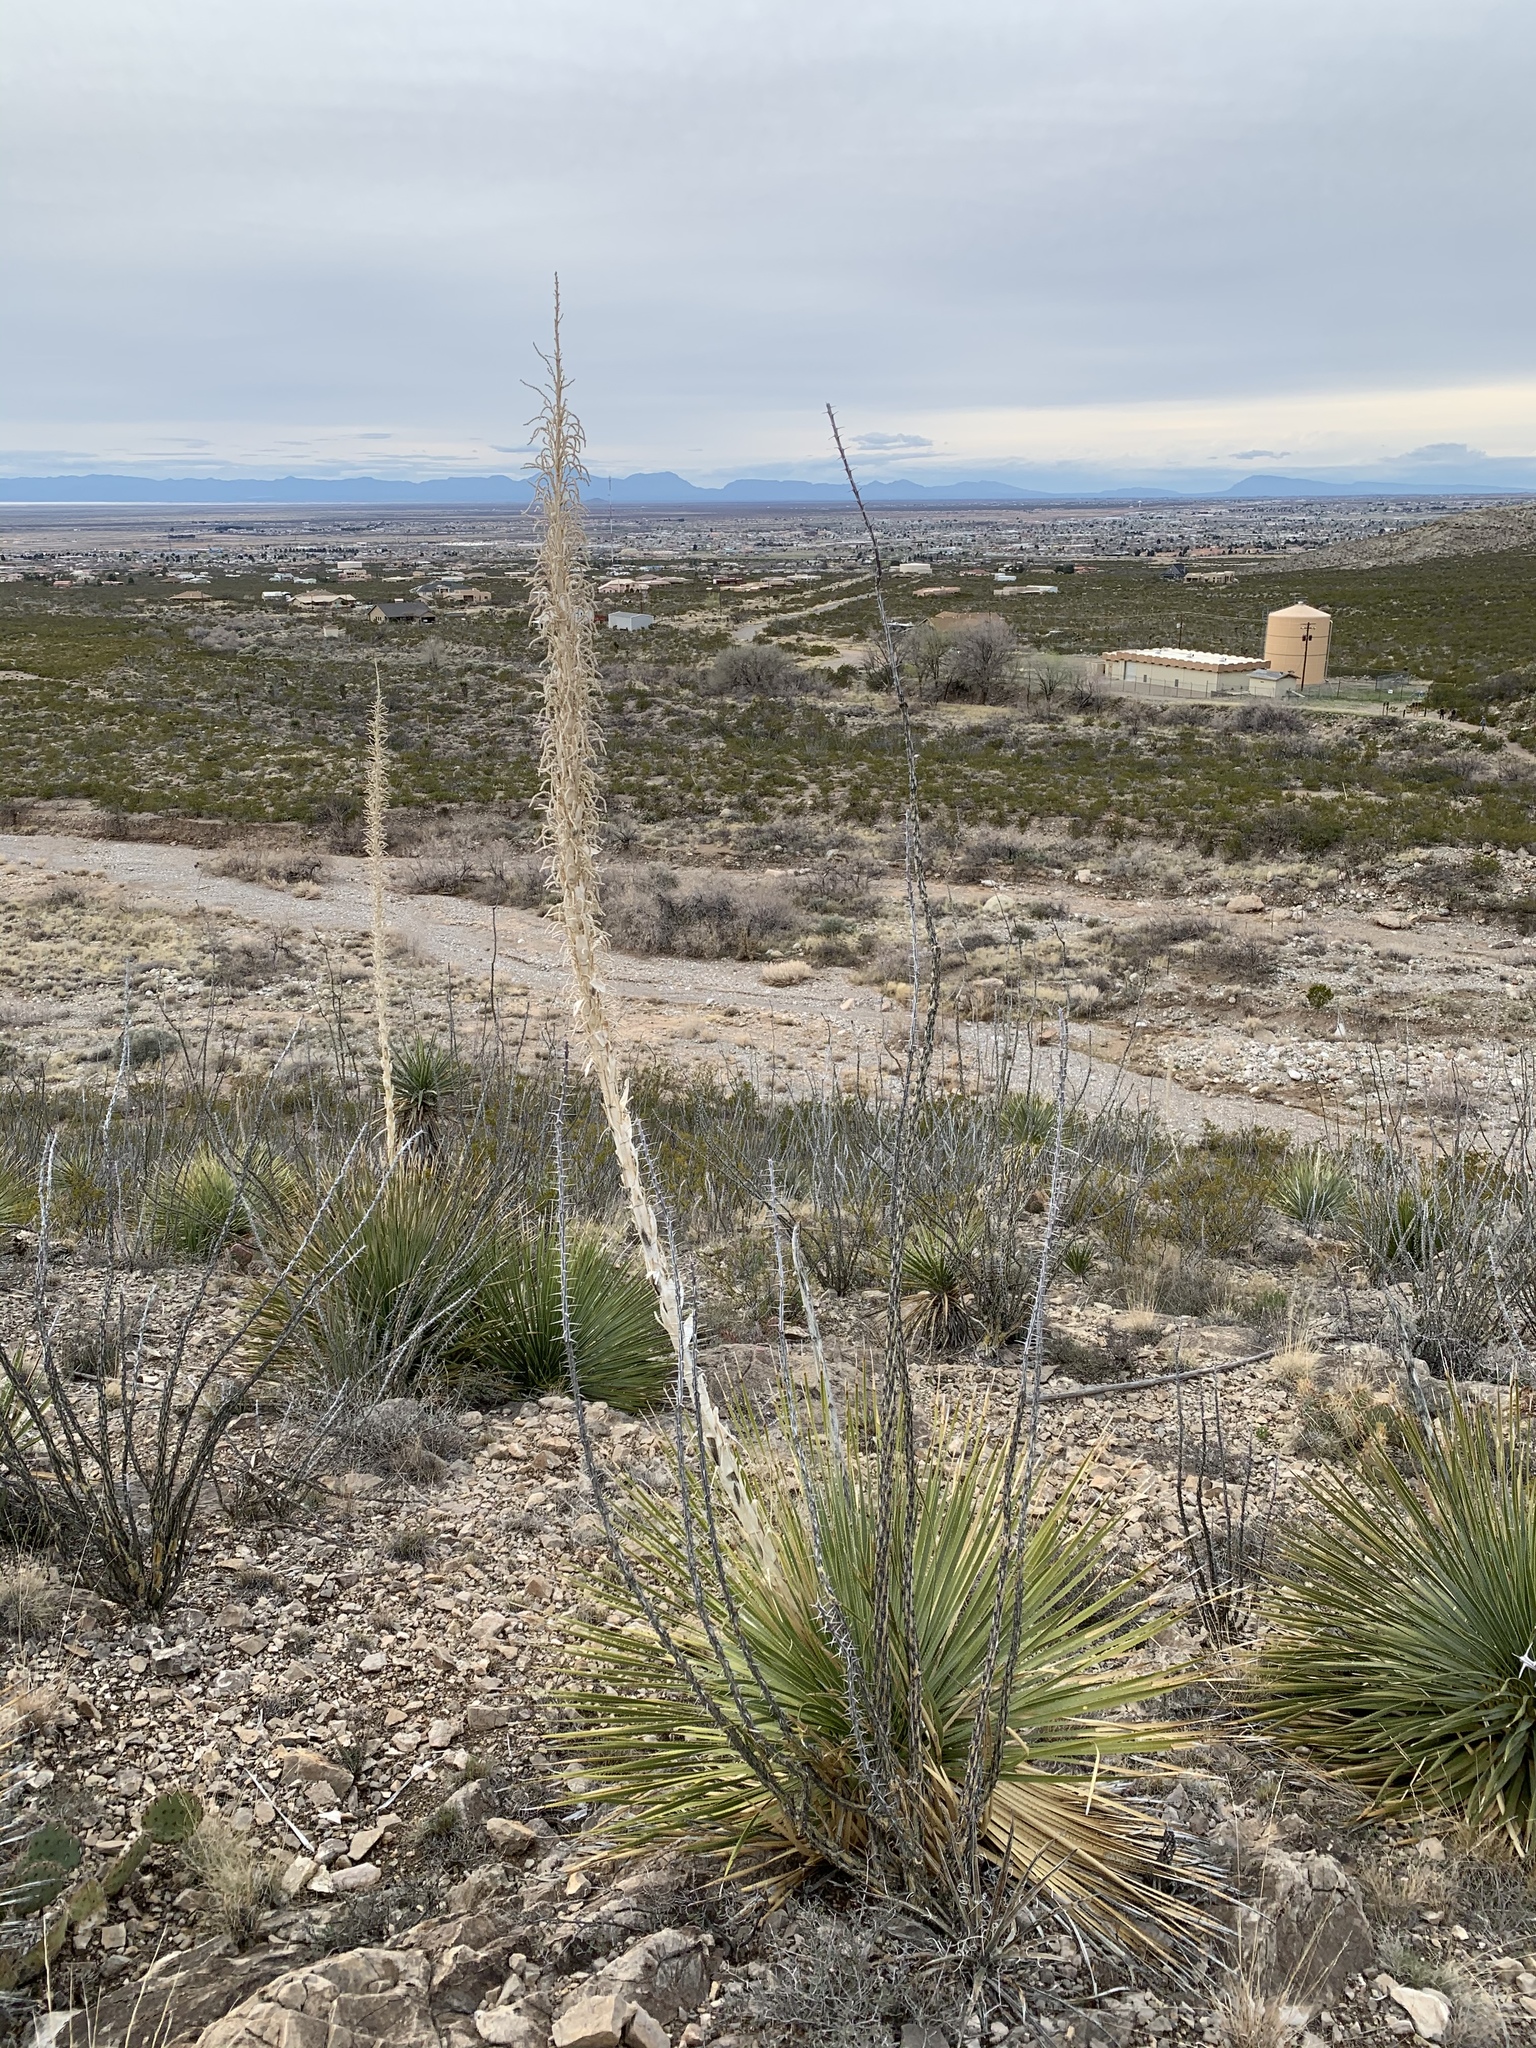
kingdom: Plantae
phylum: Tracheophyta
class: Liliopsida
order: Asparagales
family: Asparagaceae
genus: Dasylirion
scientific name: Dasylirion wheeleri
